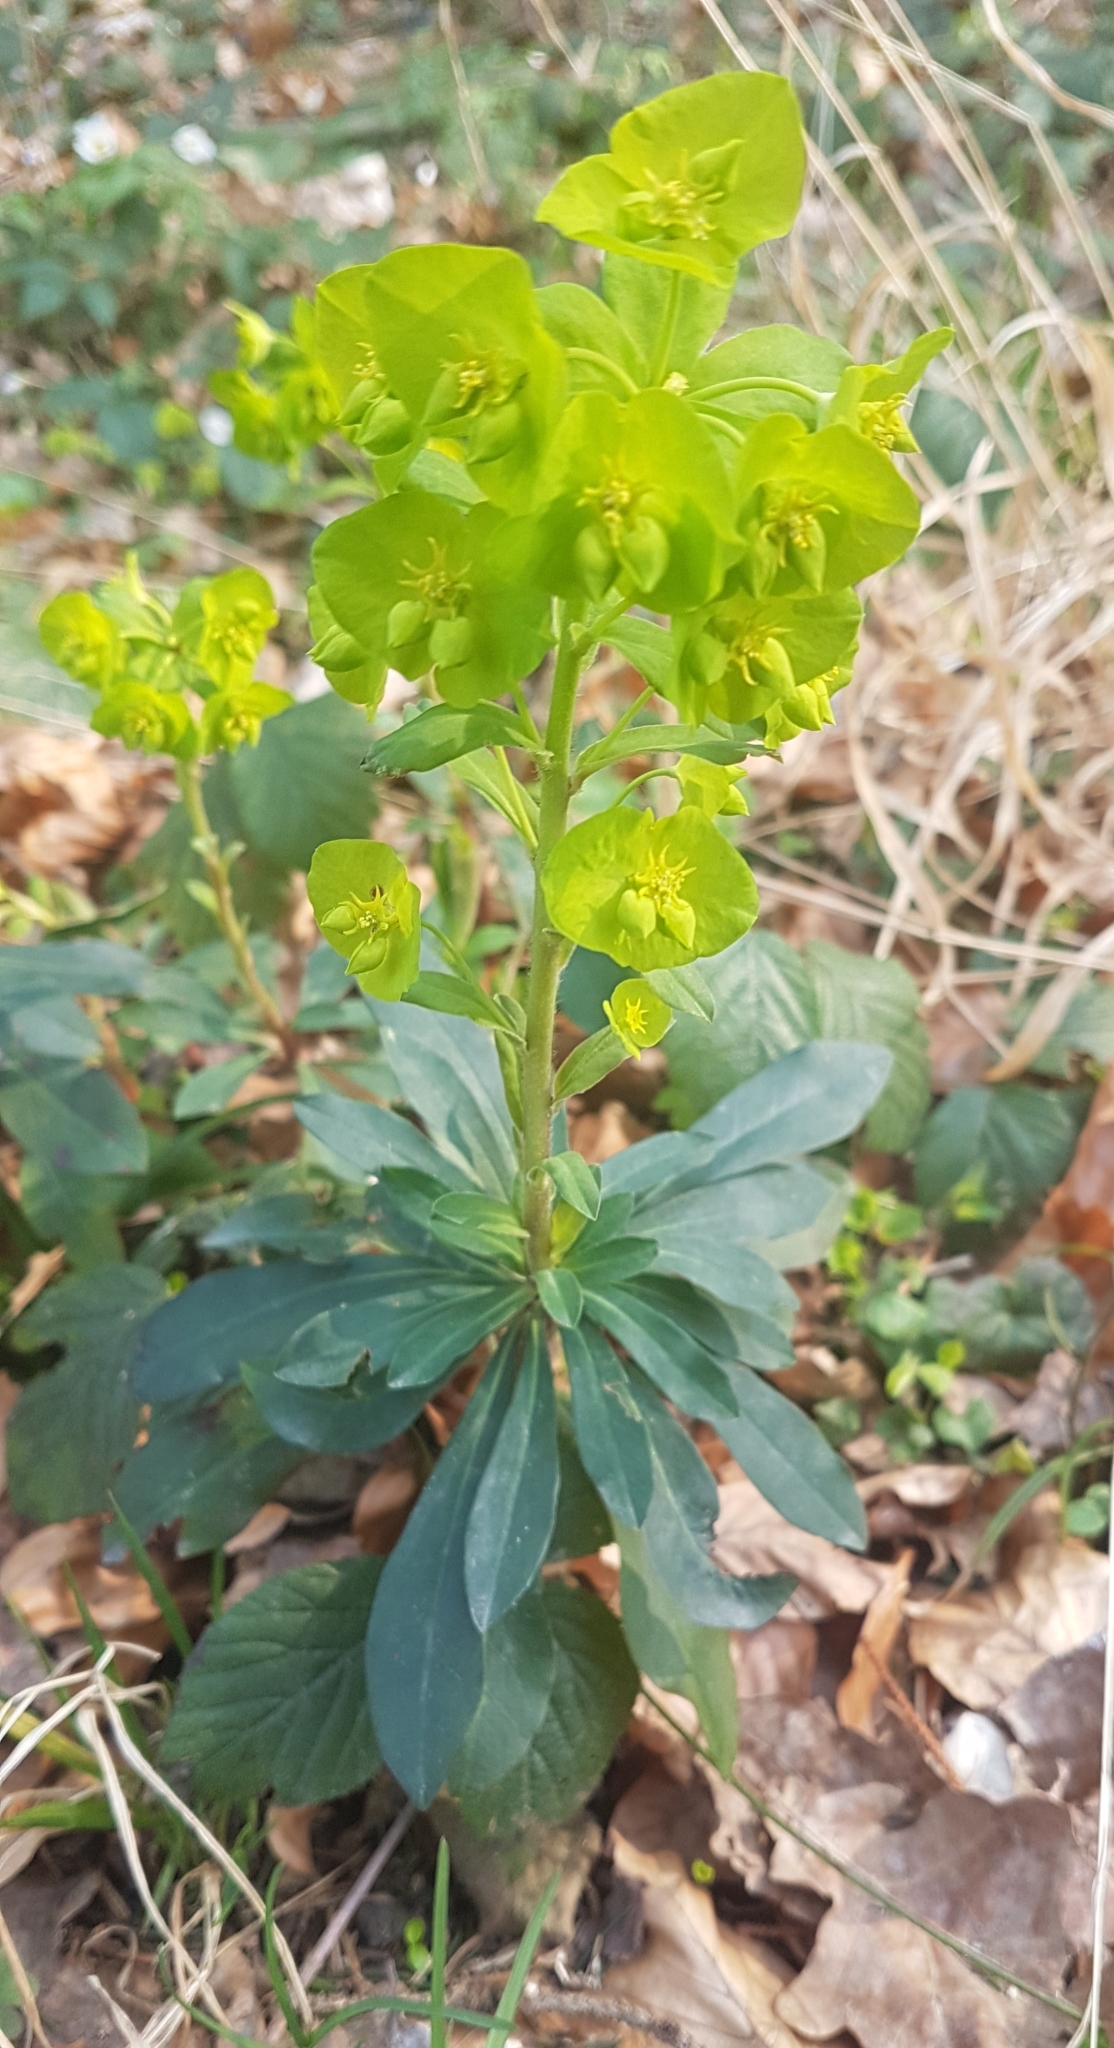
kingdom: Plantae
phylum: Tracheophyta
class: Magnoliopsida
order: Malpighiales
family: Euphorbiaceae
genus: Euphorbia
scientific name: Euphorbia amygdaloides
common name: Wood spurge
